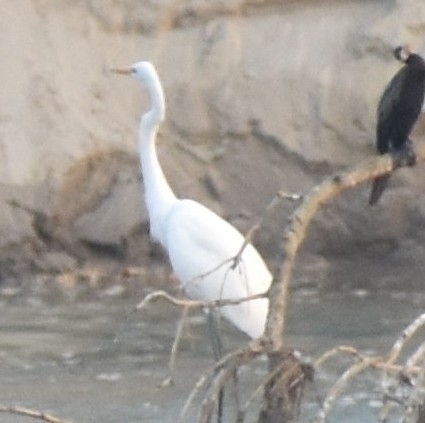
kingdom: Animalia
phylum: Chordata
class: Aves
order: Pelecaniformes
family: Ardeidae
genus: Ardea
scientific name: Ardea alba
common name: Great egret
